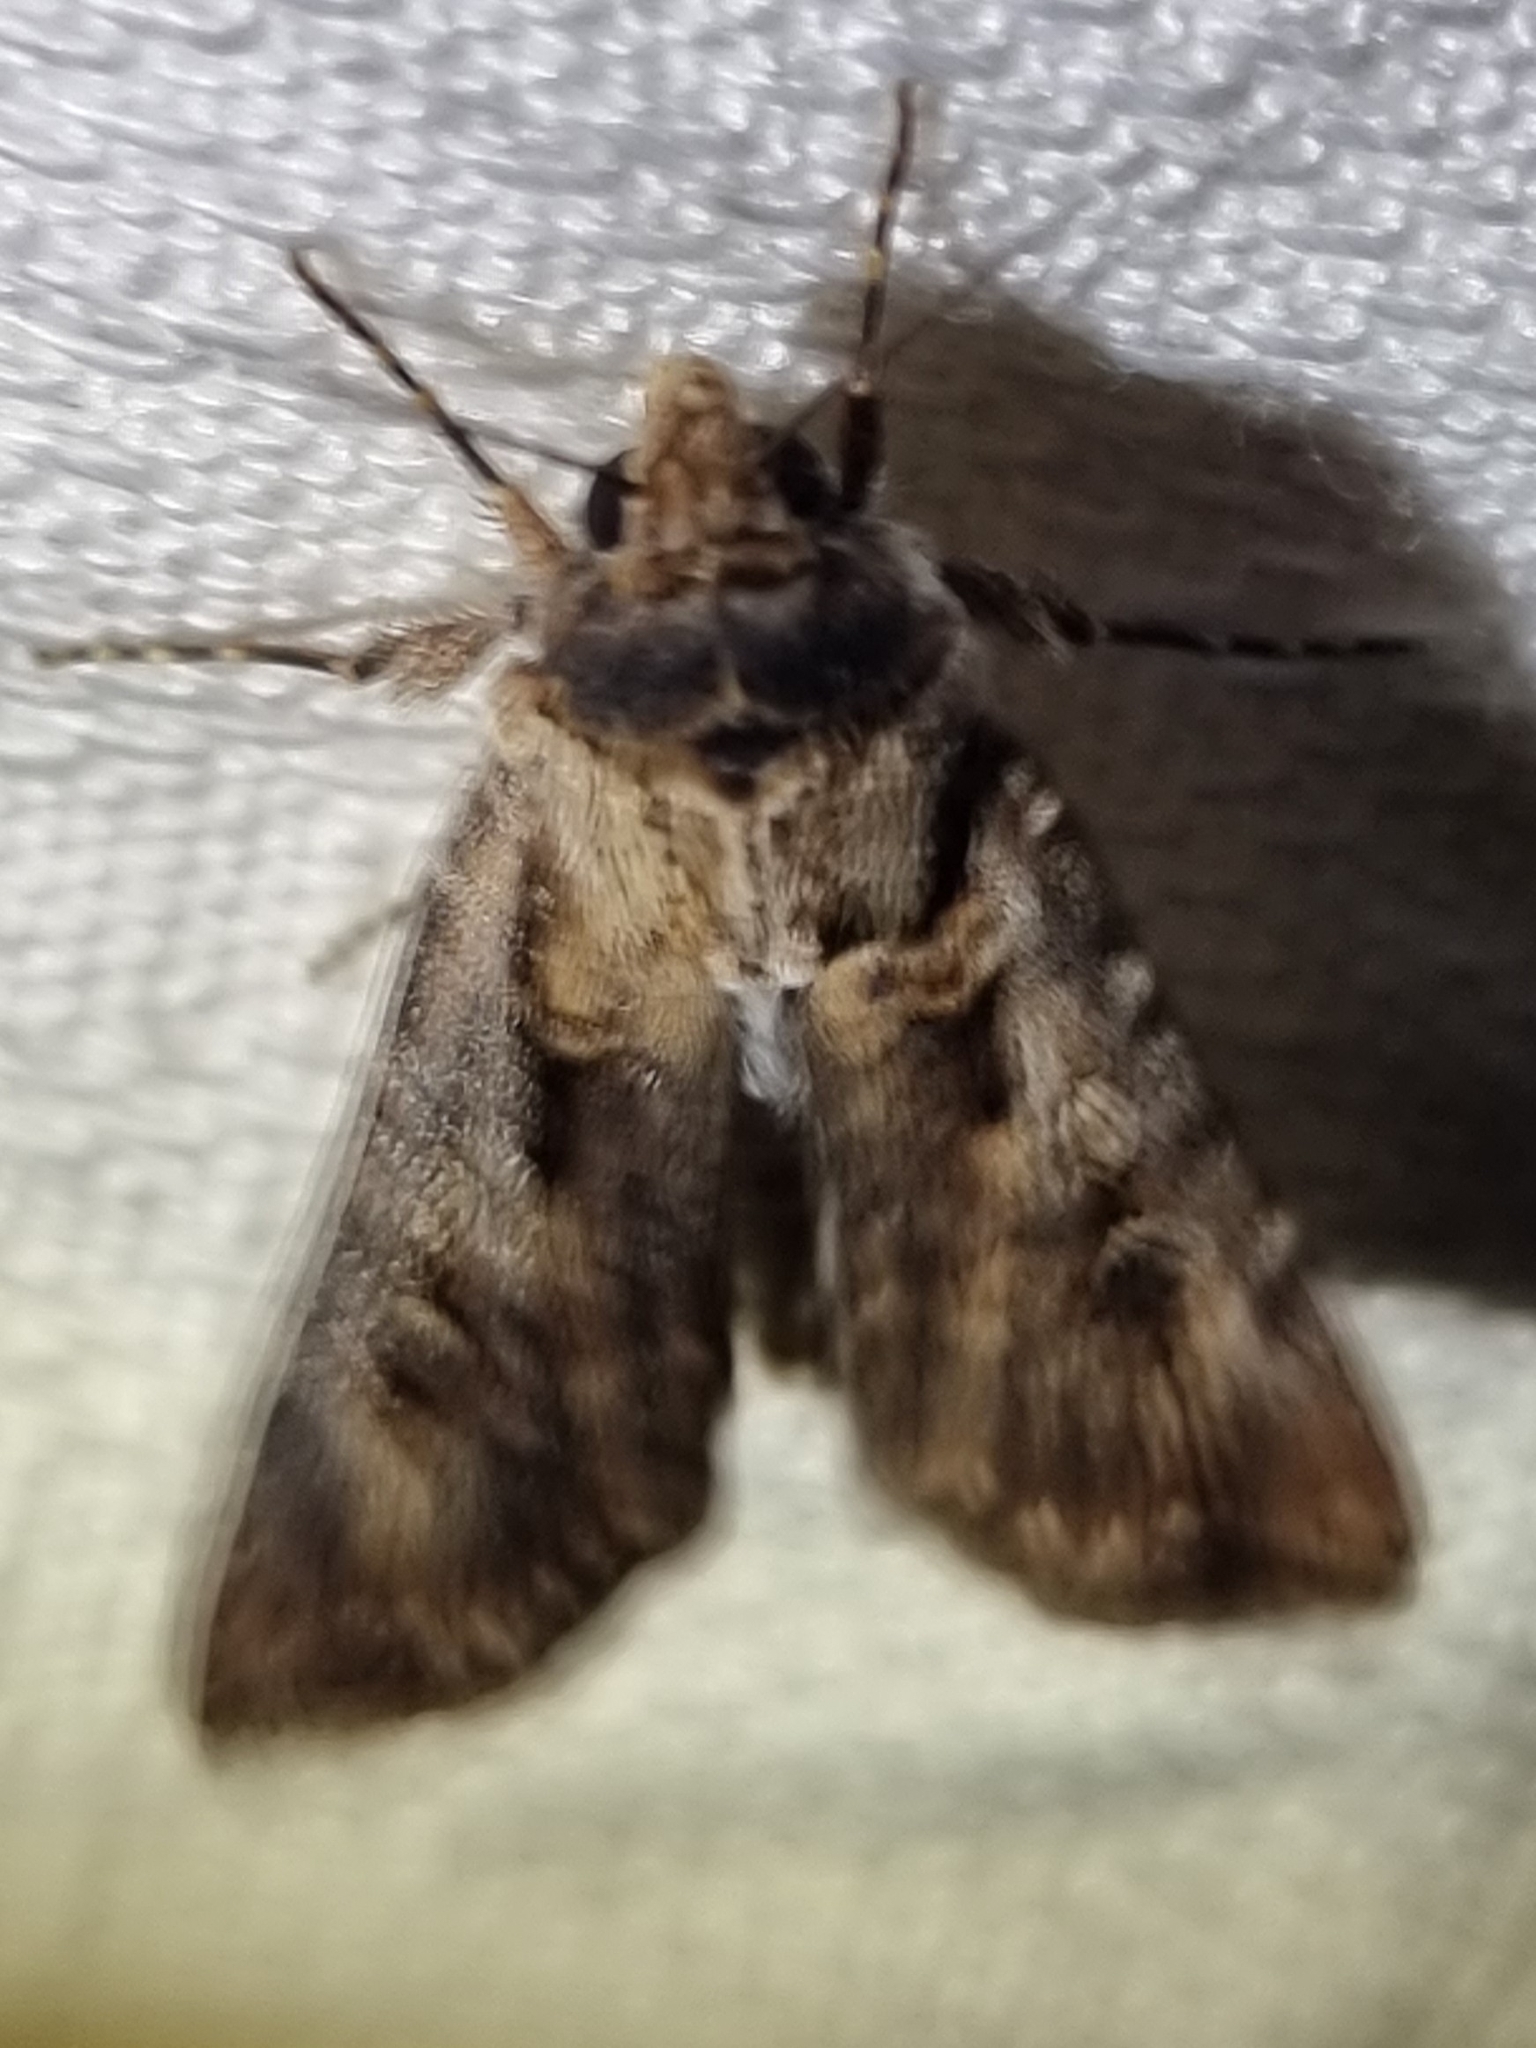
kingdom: Animalia
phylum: Arthropoda
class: Insecta
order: Lepidoptera
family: Noctuidae
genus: Agrotis
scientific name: Agrotis munda
